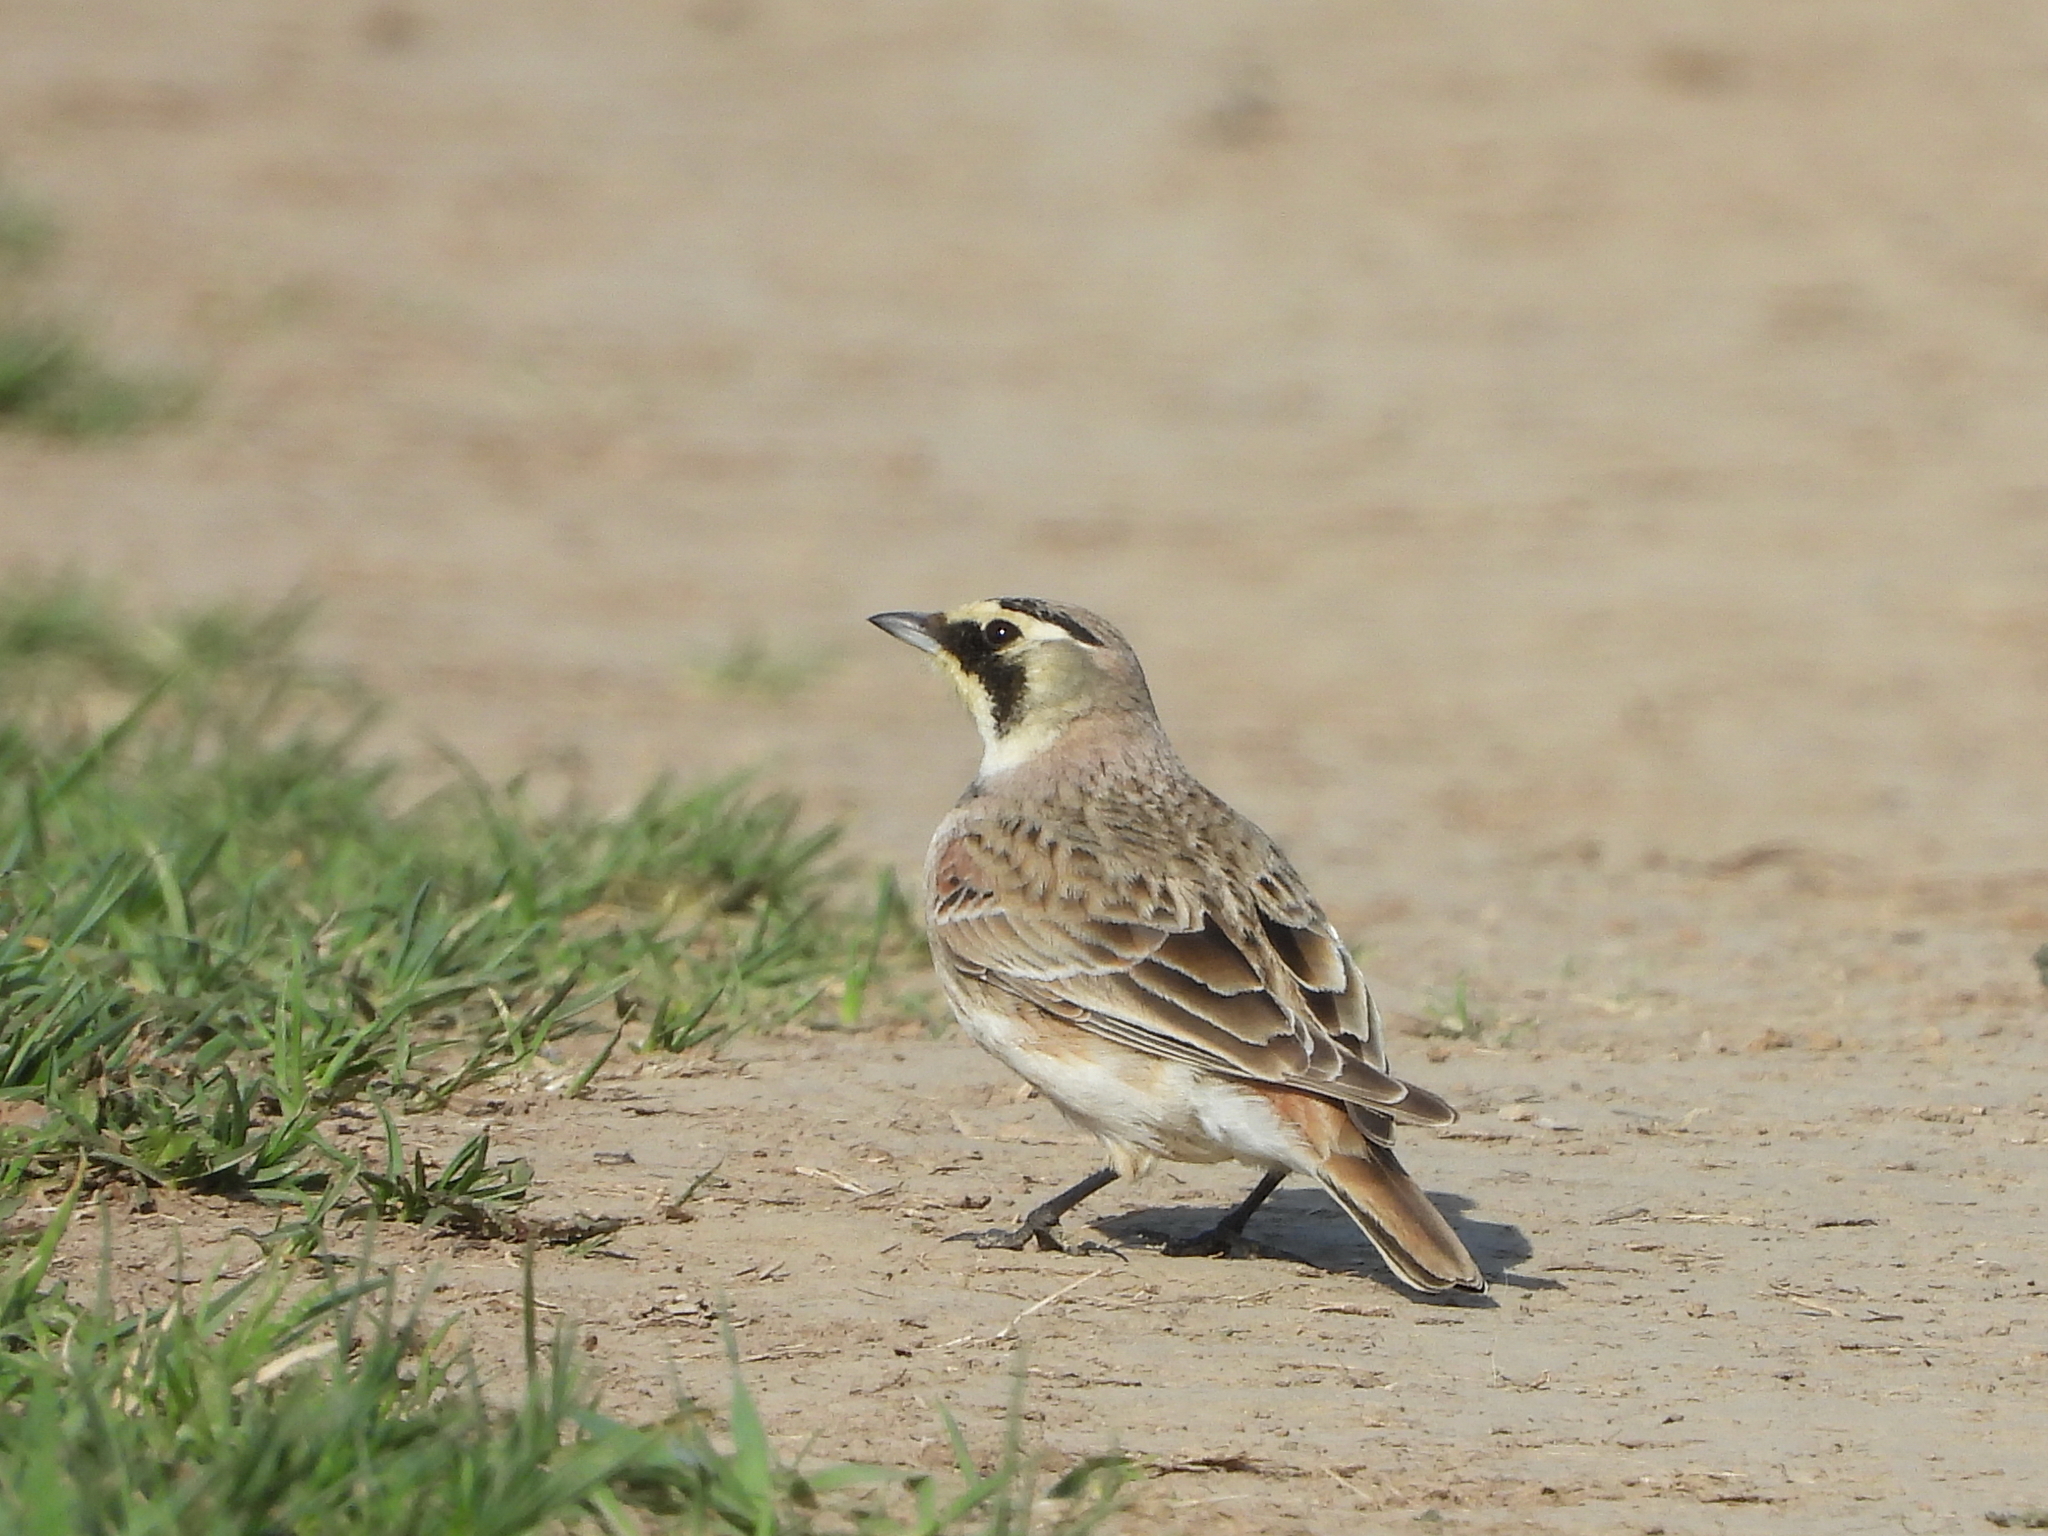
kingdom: Animalia
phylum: Chordata
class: Aves
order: Passeriformes
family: Alaudidae
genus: Eremophila
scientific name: Eremophila alpestris
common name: Horned lark
